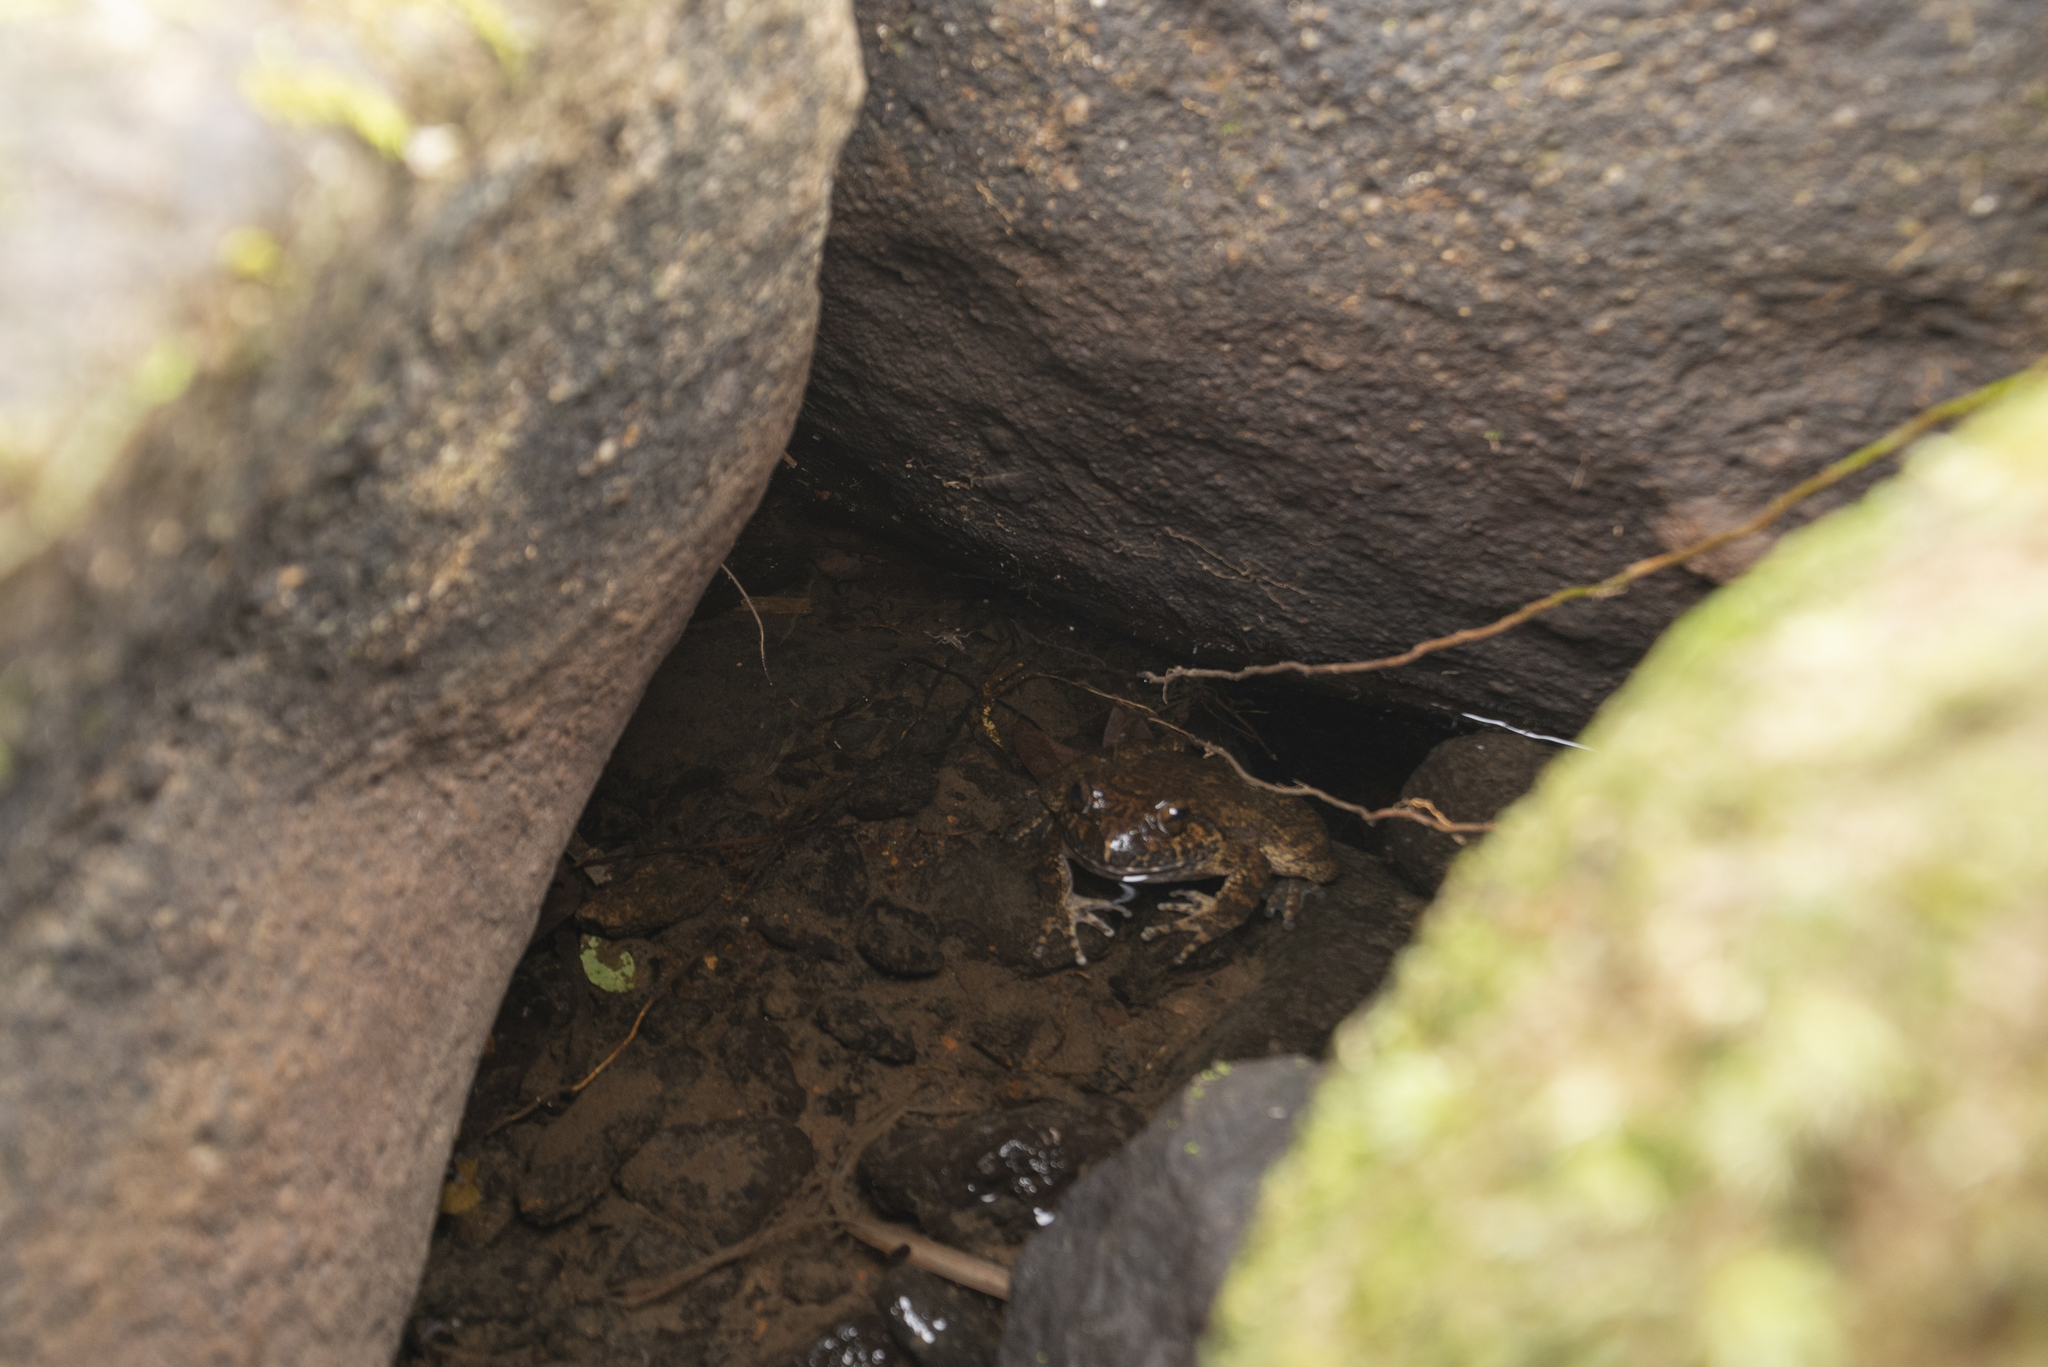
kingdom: Animalia
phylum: Chordata
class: Amphibia
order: Anura
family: Dicroglossidae
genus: Quasipaa
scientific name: Quasipaa spinosa
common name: Chinese edible frog
